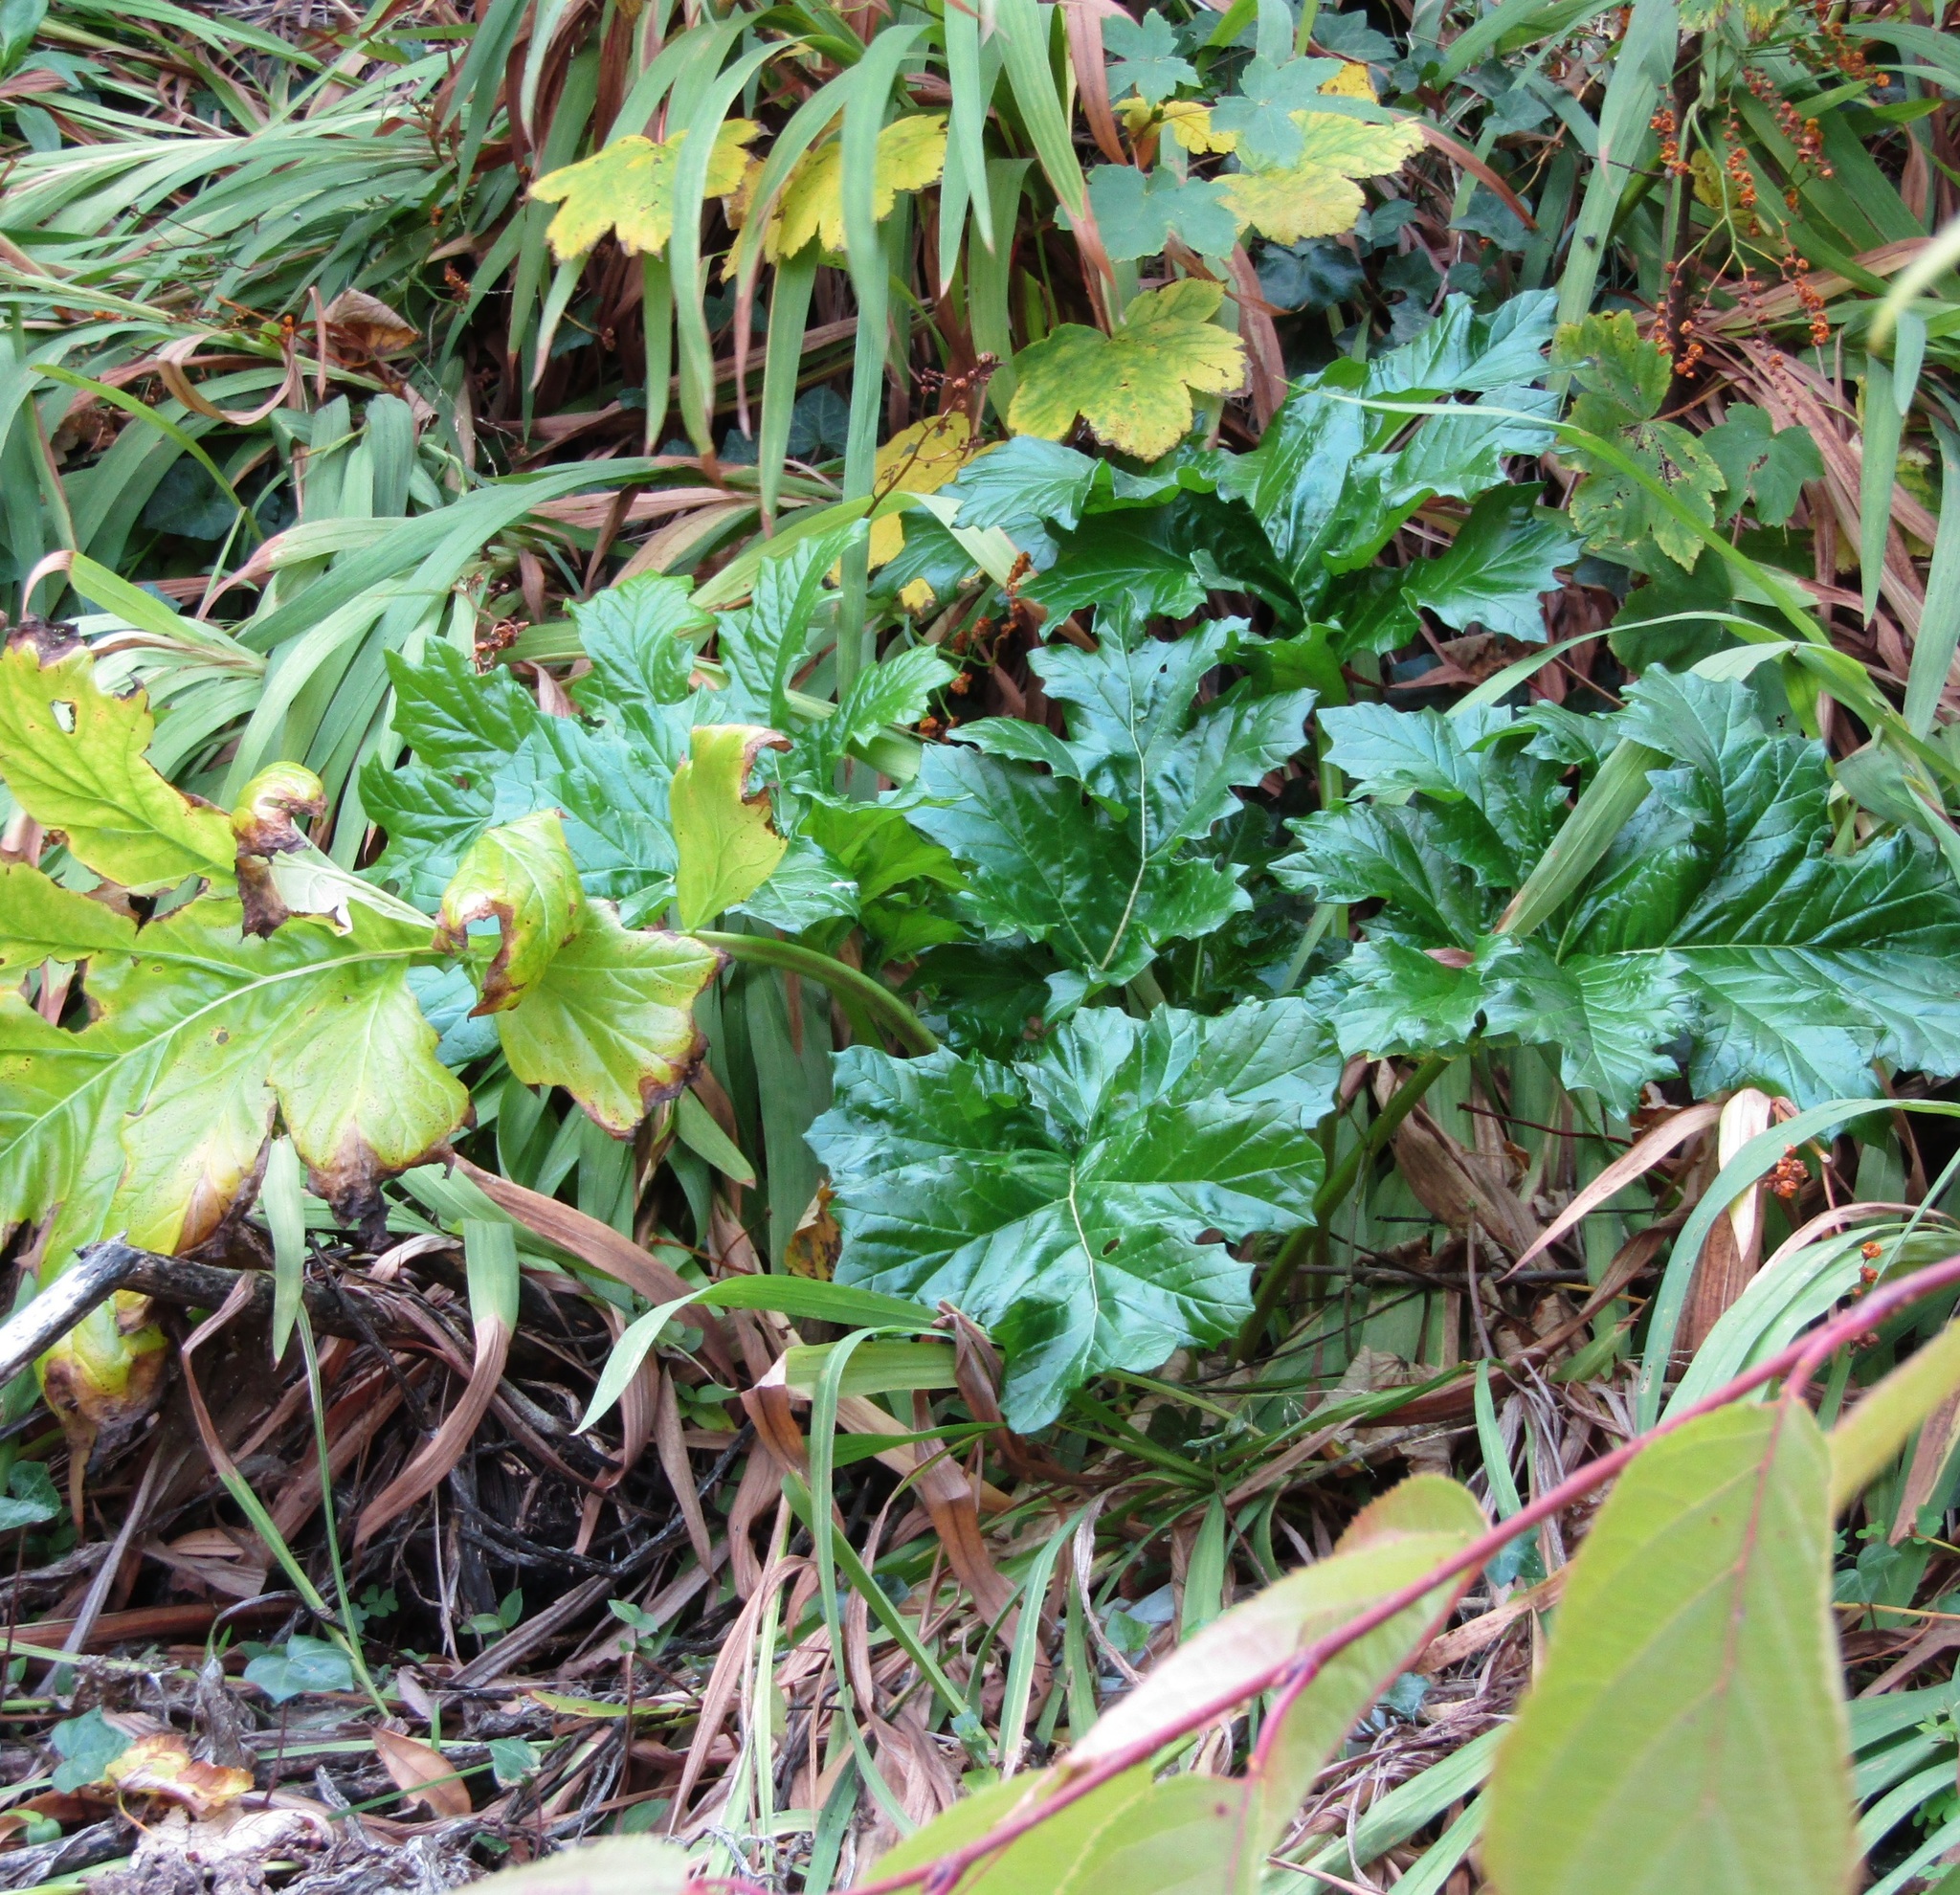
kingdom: Plantae
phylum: Tracheophyta
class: Magnoliopsida
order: Lamiales
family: Acanthaceae
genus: Acanthus
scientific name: Acanthus mollis
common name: Bear's-breech
